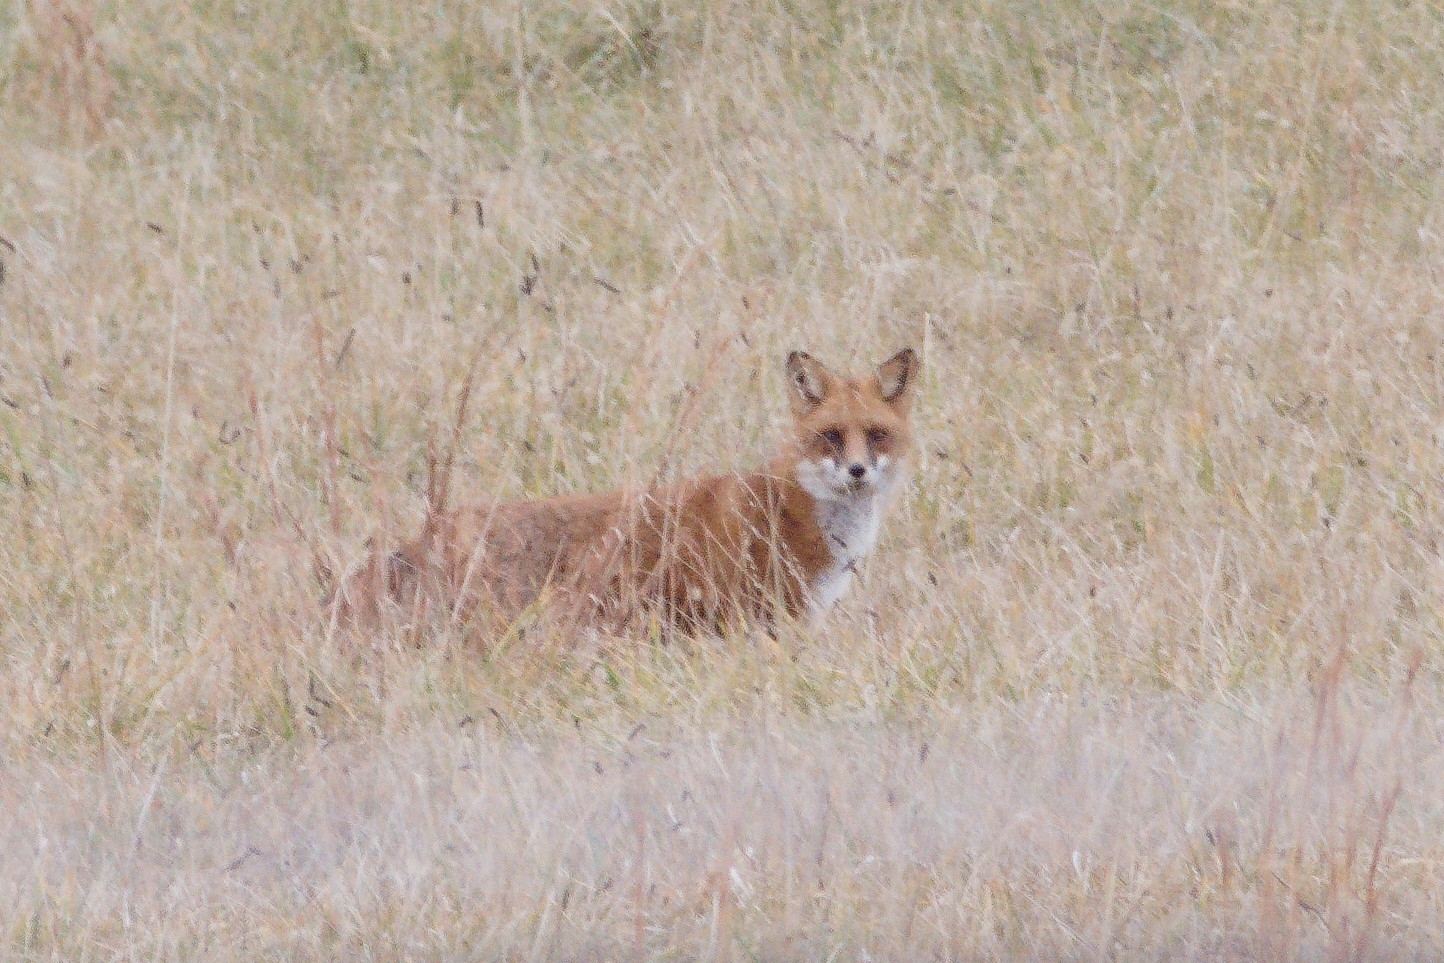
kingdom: Animalia
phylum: Chordata
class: Mammalia
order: Carnivora
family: Canidae
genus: Vulpes
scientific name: Vulpes vulpes
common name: Red fox
